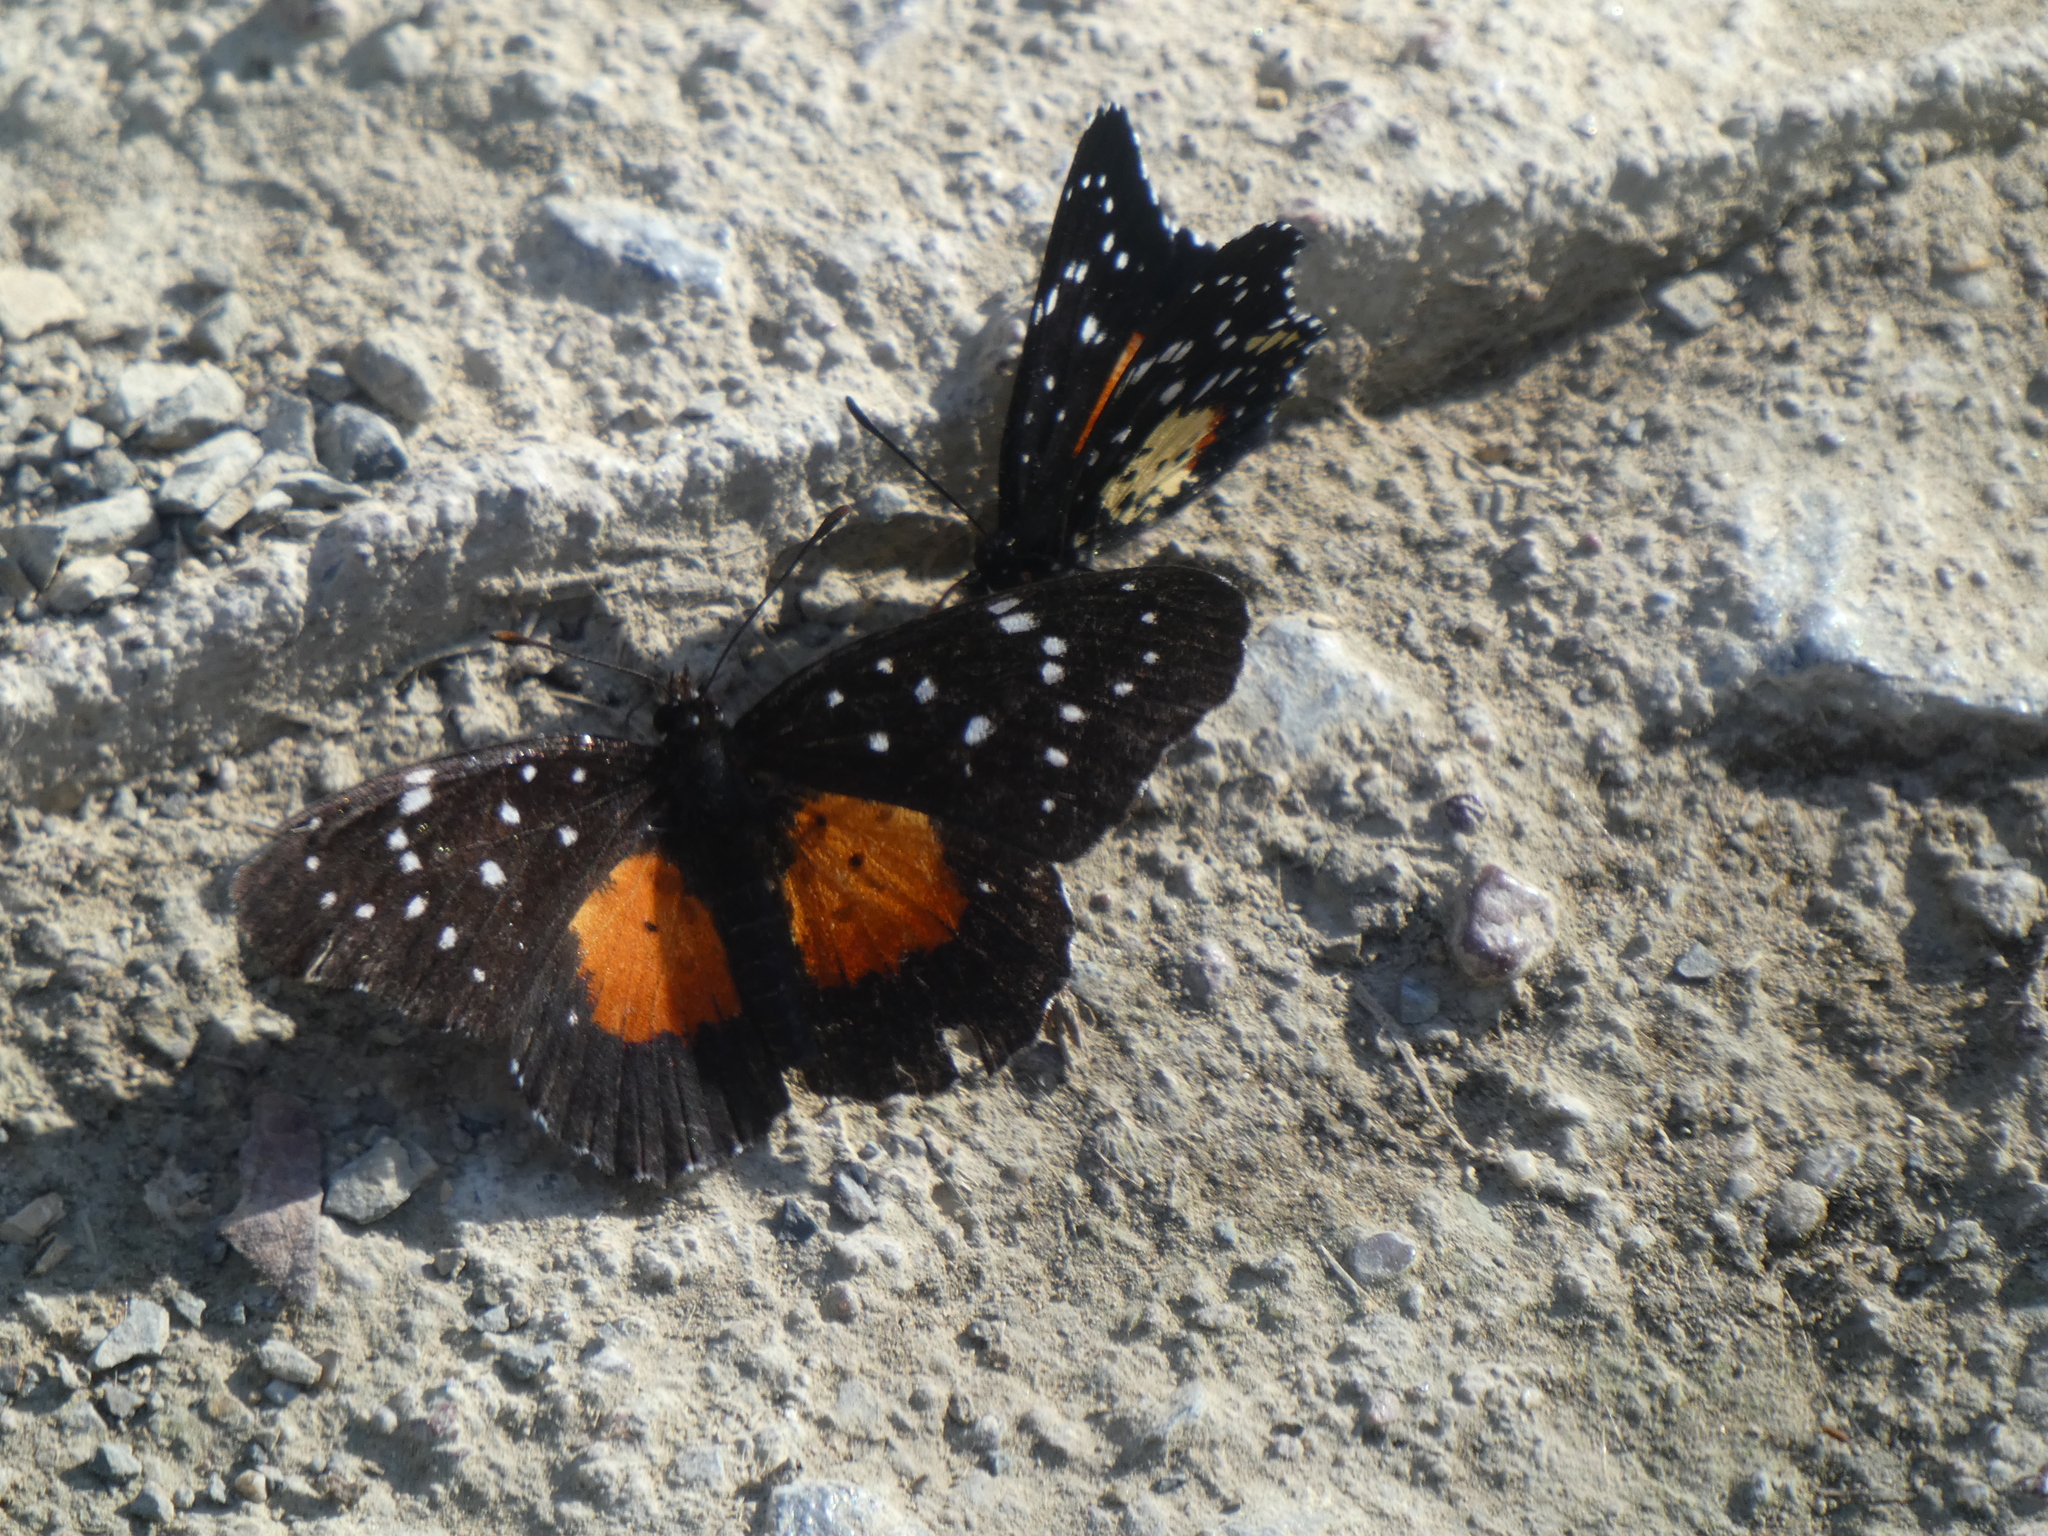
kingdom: Animalia
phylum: Arthropoda
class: Insecta
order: Lepidoptera
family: Nymphalidae
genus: Chlosyne
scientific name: Chlosyne janais
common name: Crimson patch
